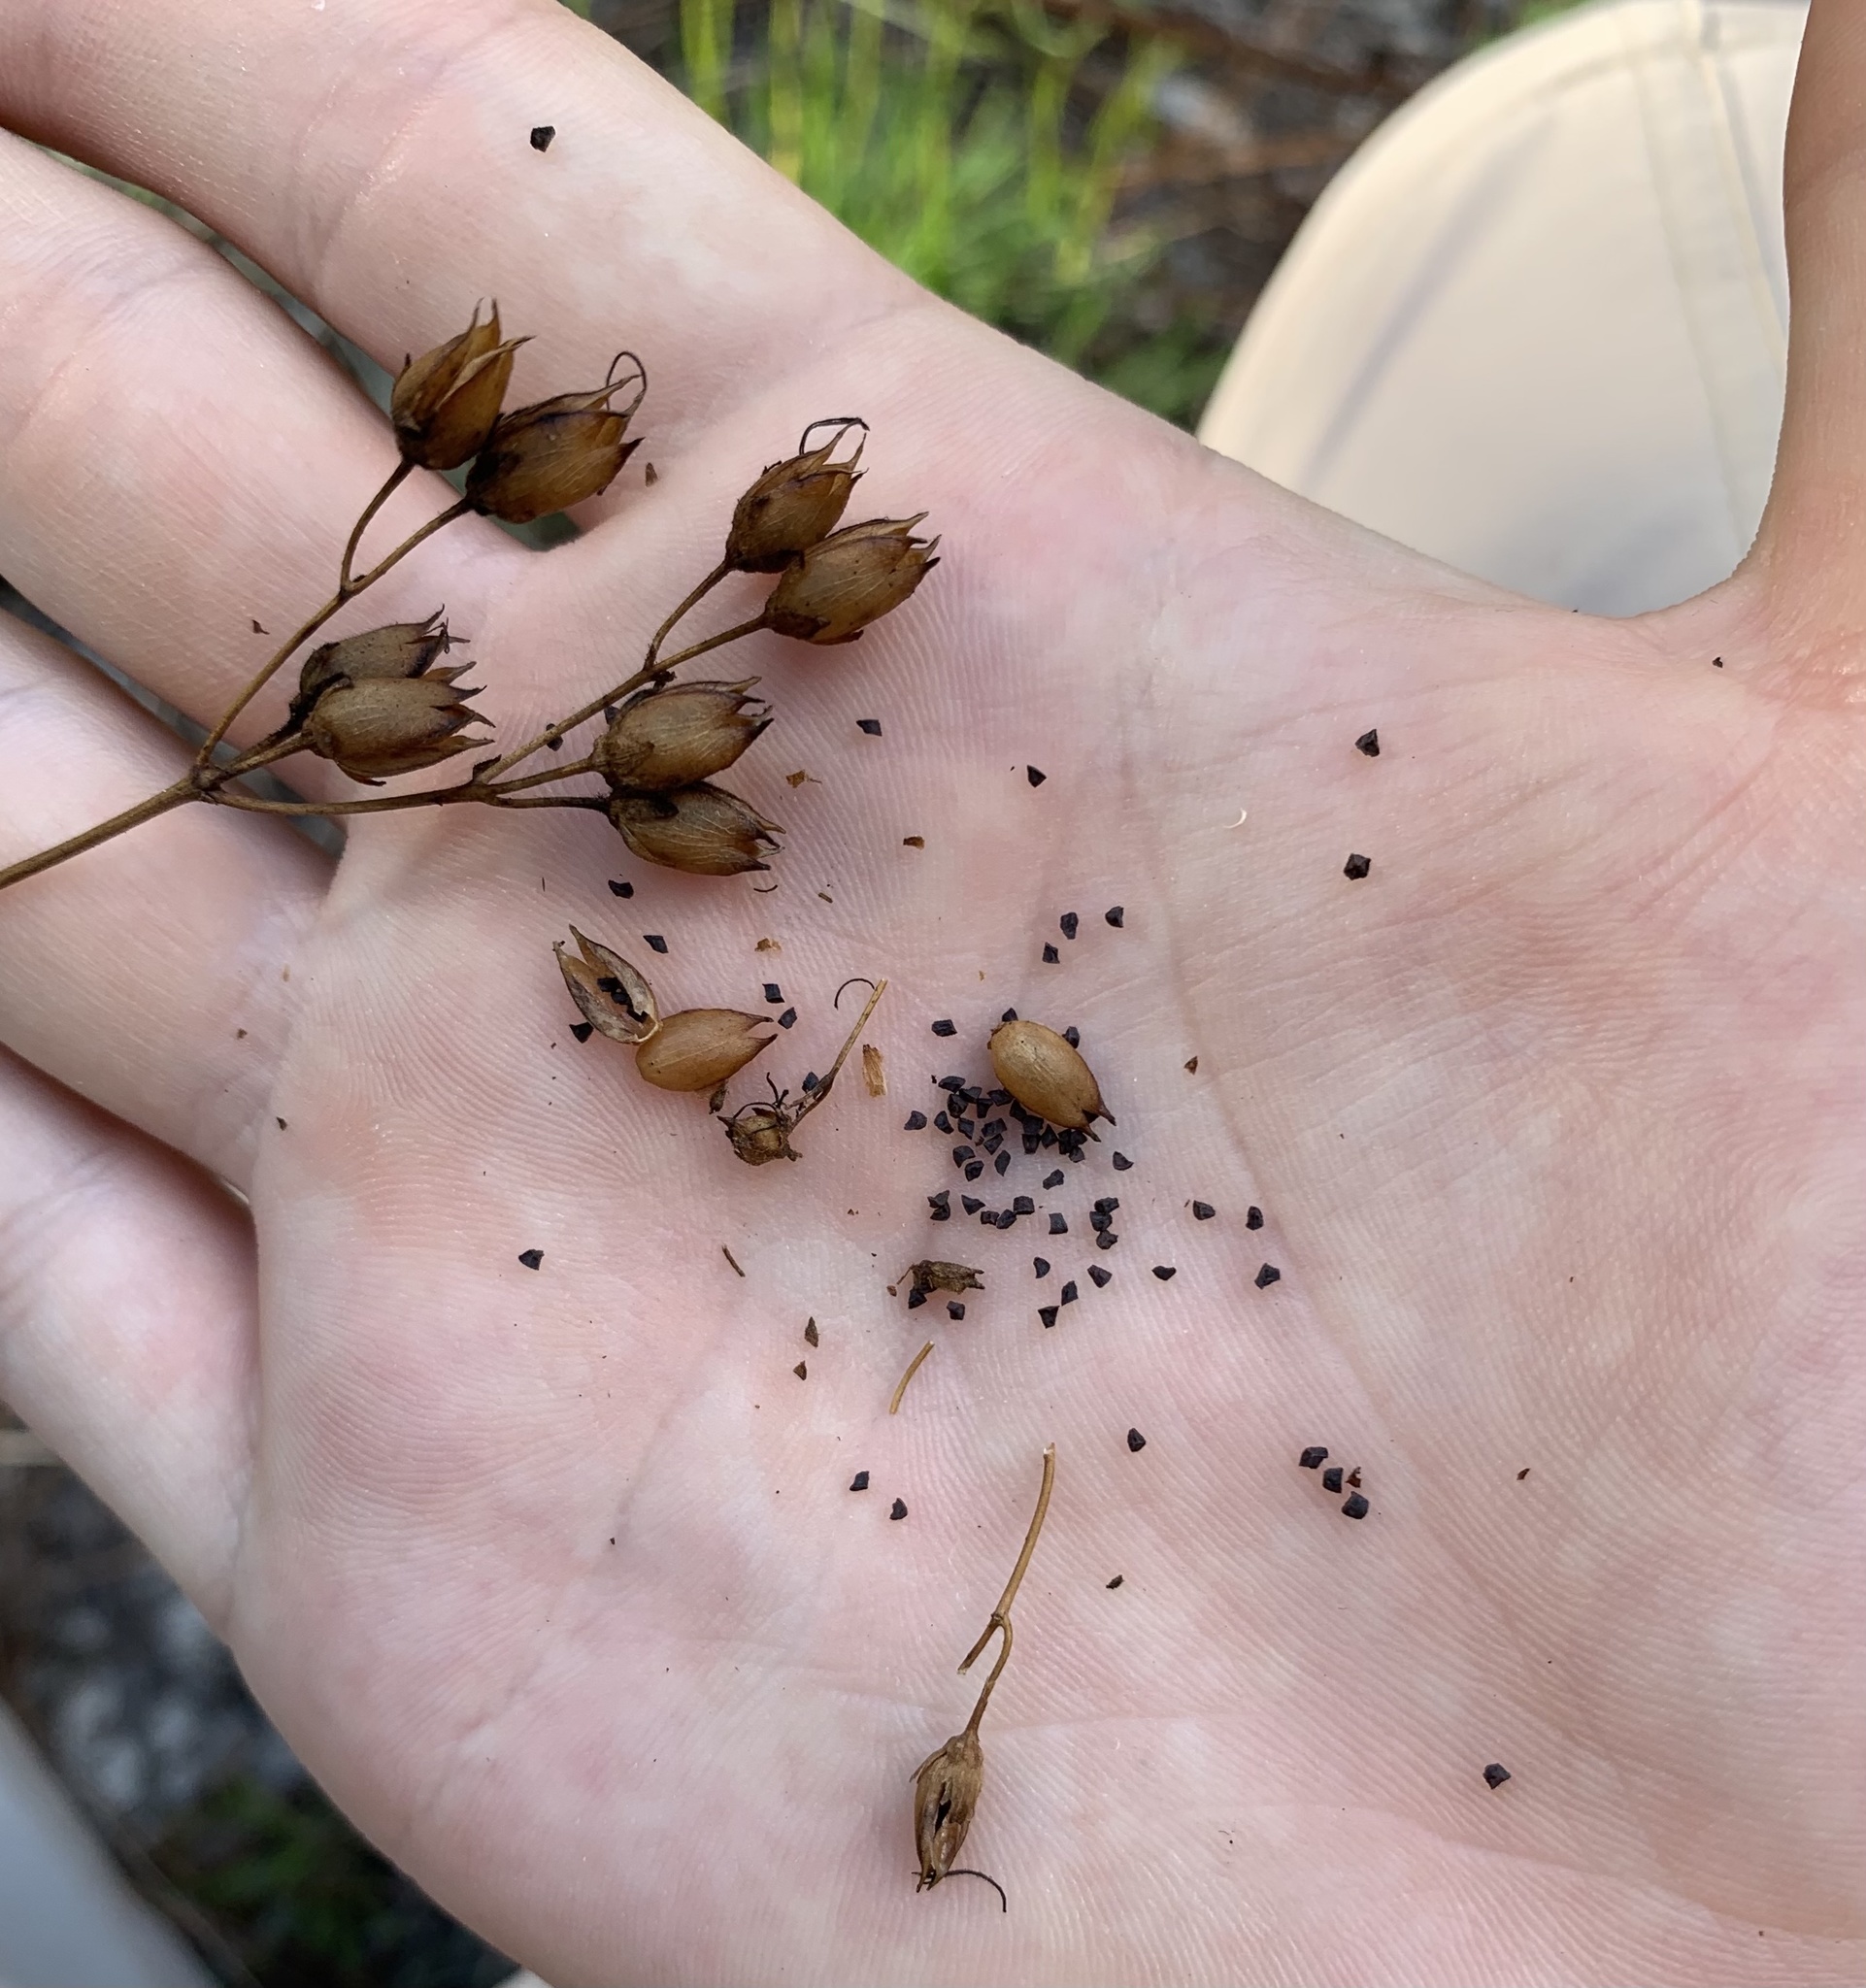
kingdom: Plantae
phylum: Tracheophyta
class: Magnoliopsida
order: Lamiales
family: Plantaginaceae
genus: Penstemon
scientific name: Penstemon multiflorus
